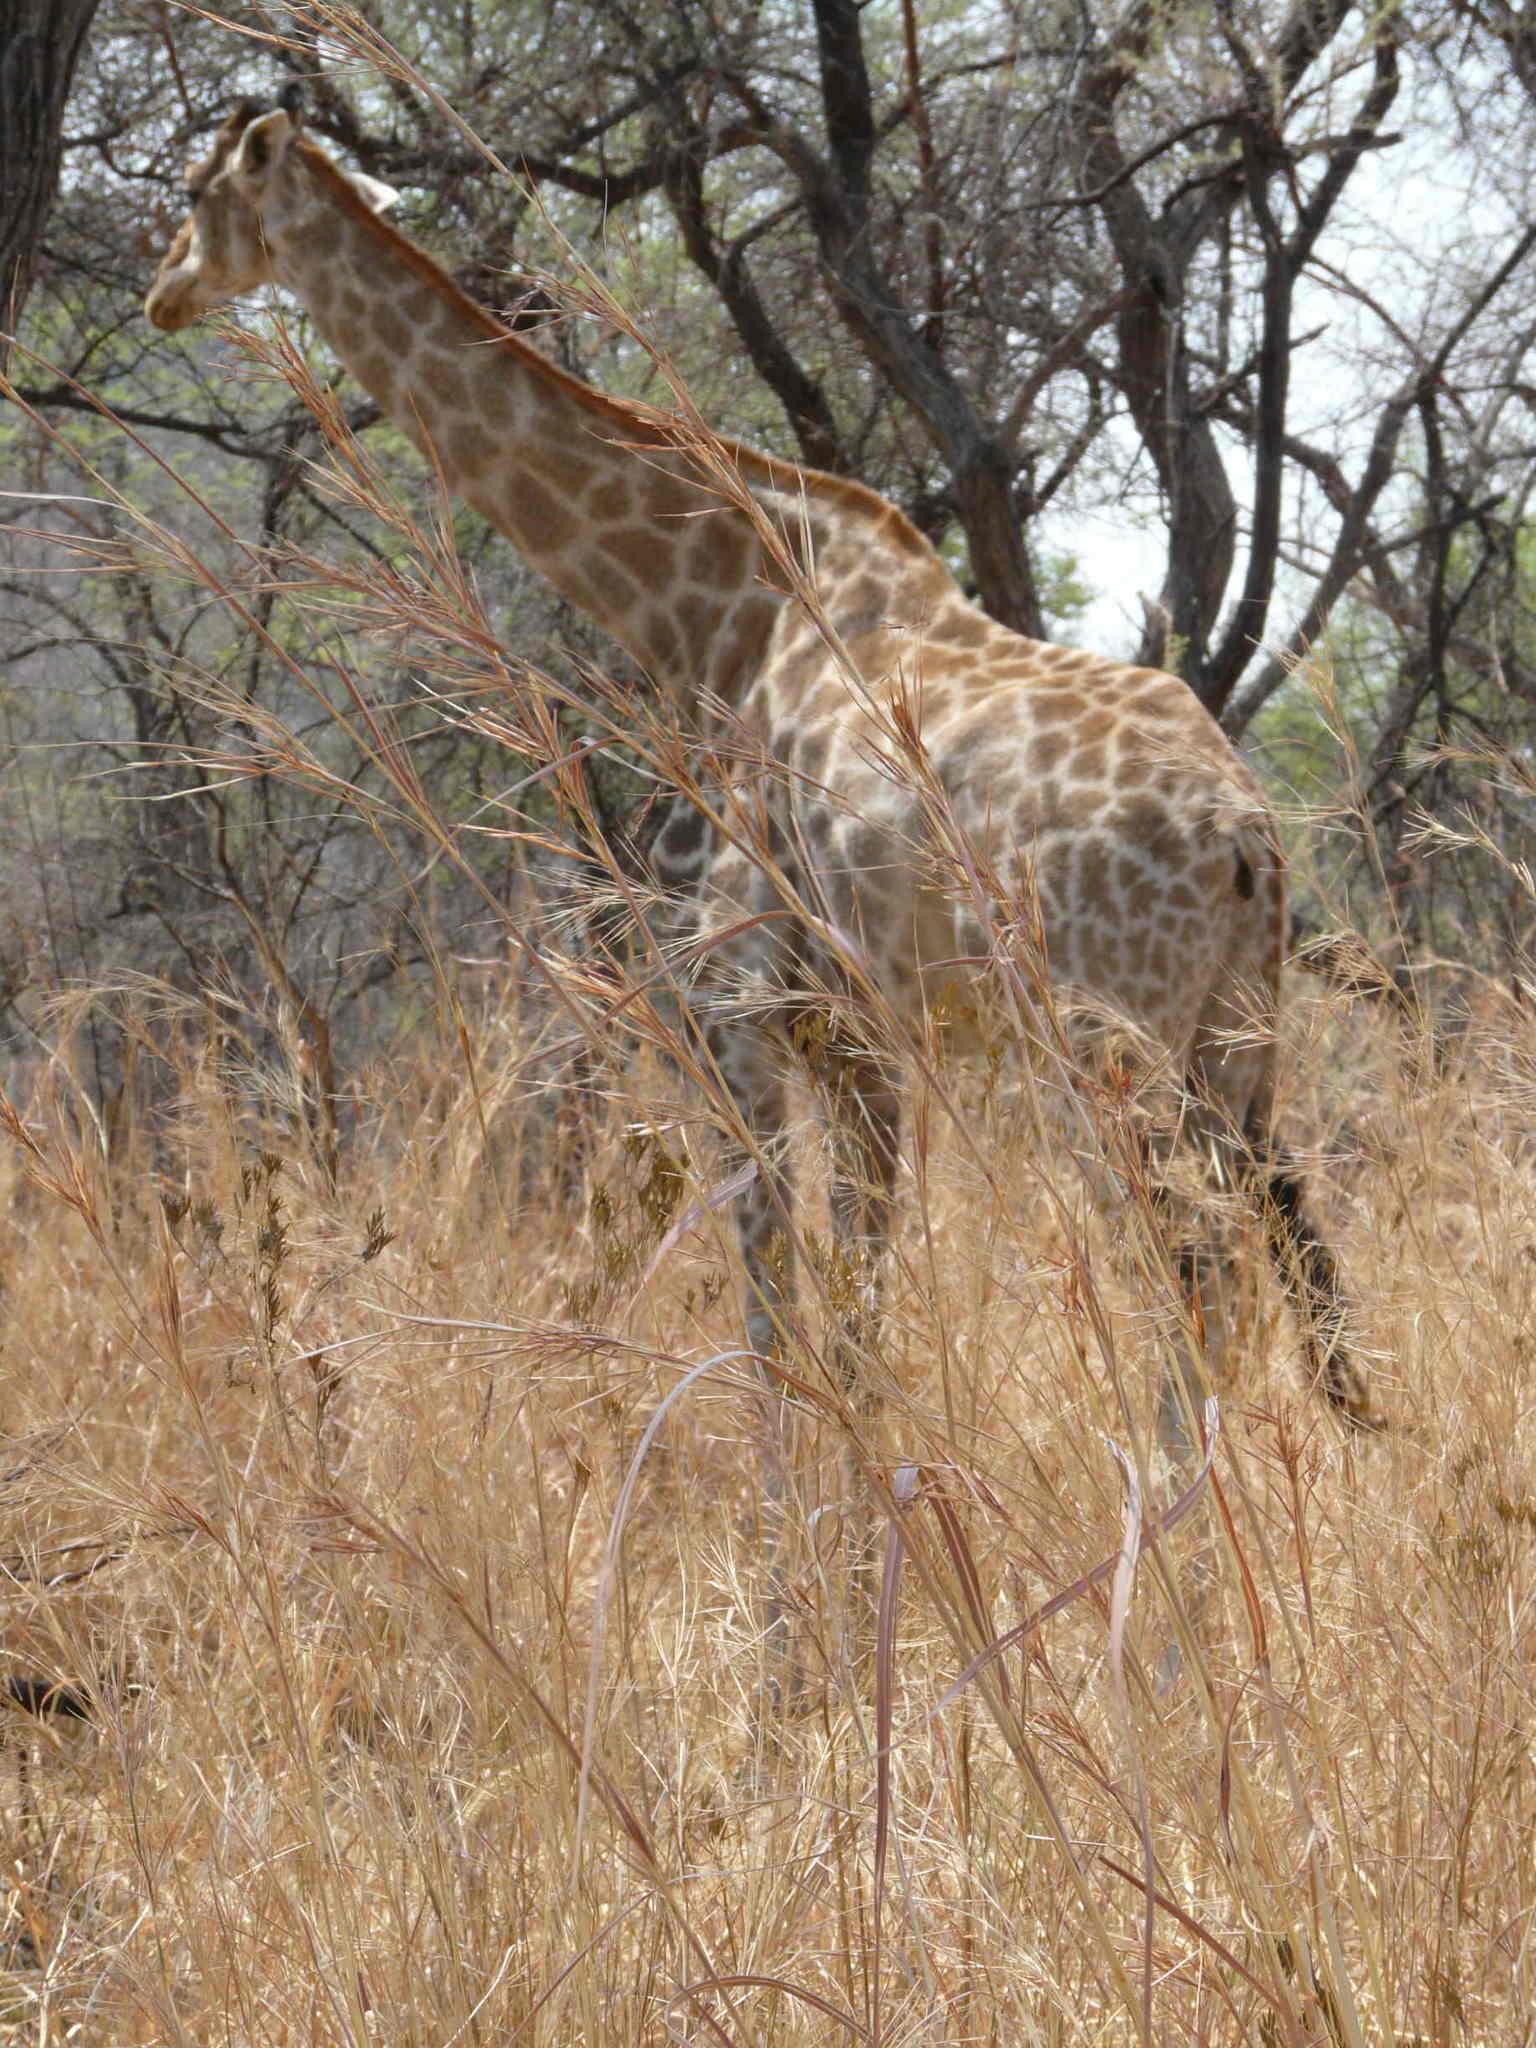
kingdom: Animalia
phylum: Chordata
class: Mammalia
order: Artiodactyla
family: Giraffidae
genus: Giraffa
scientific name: Giraffa giraffa
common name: Southern giraffe
